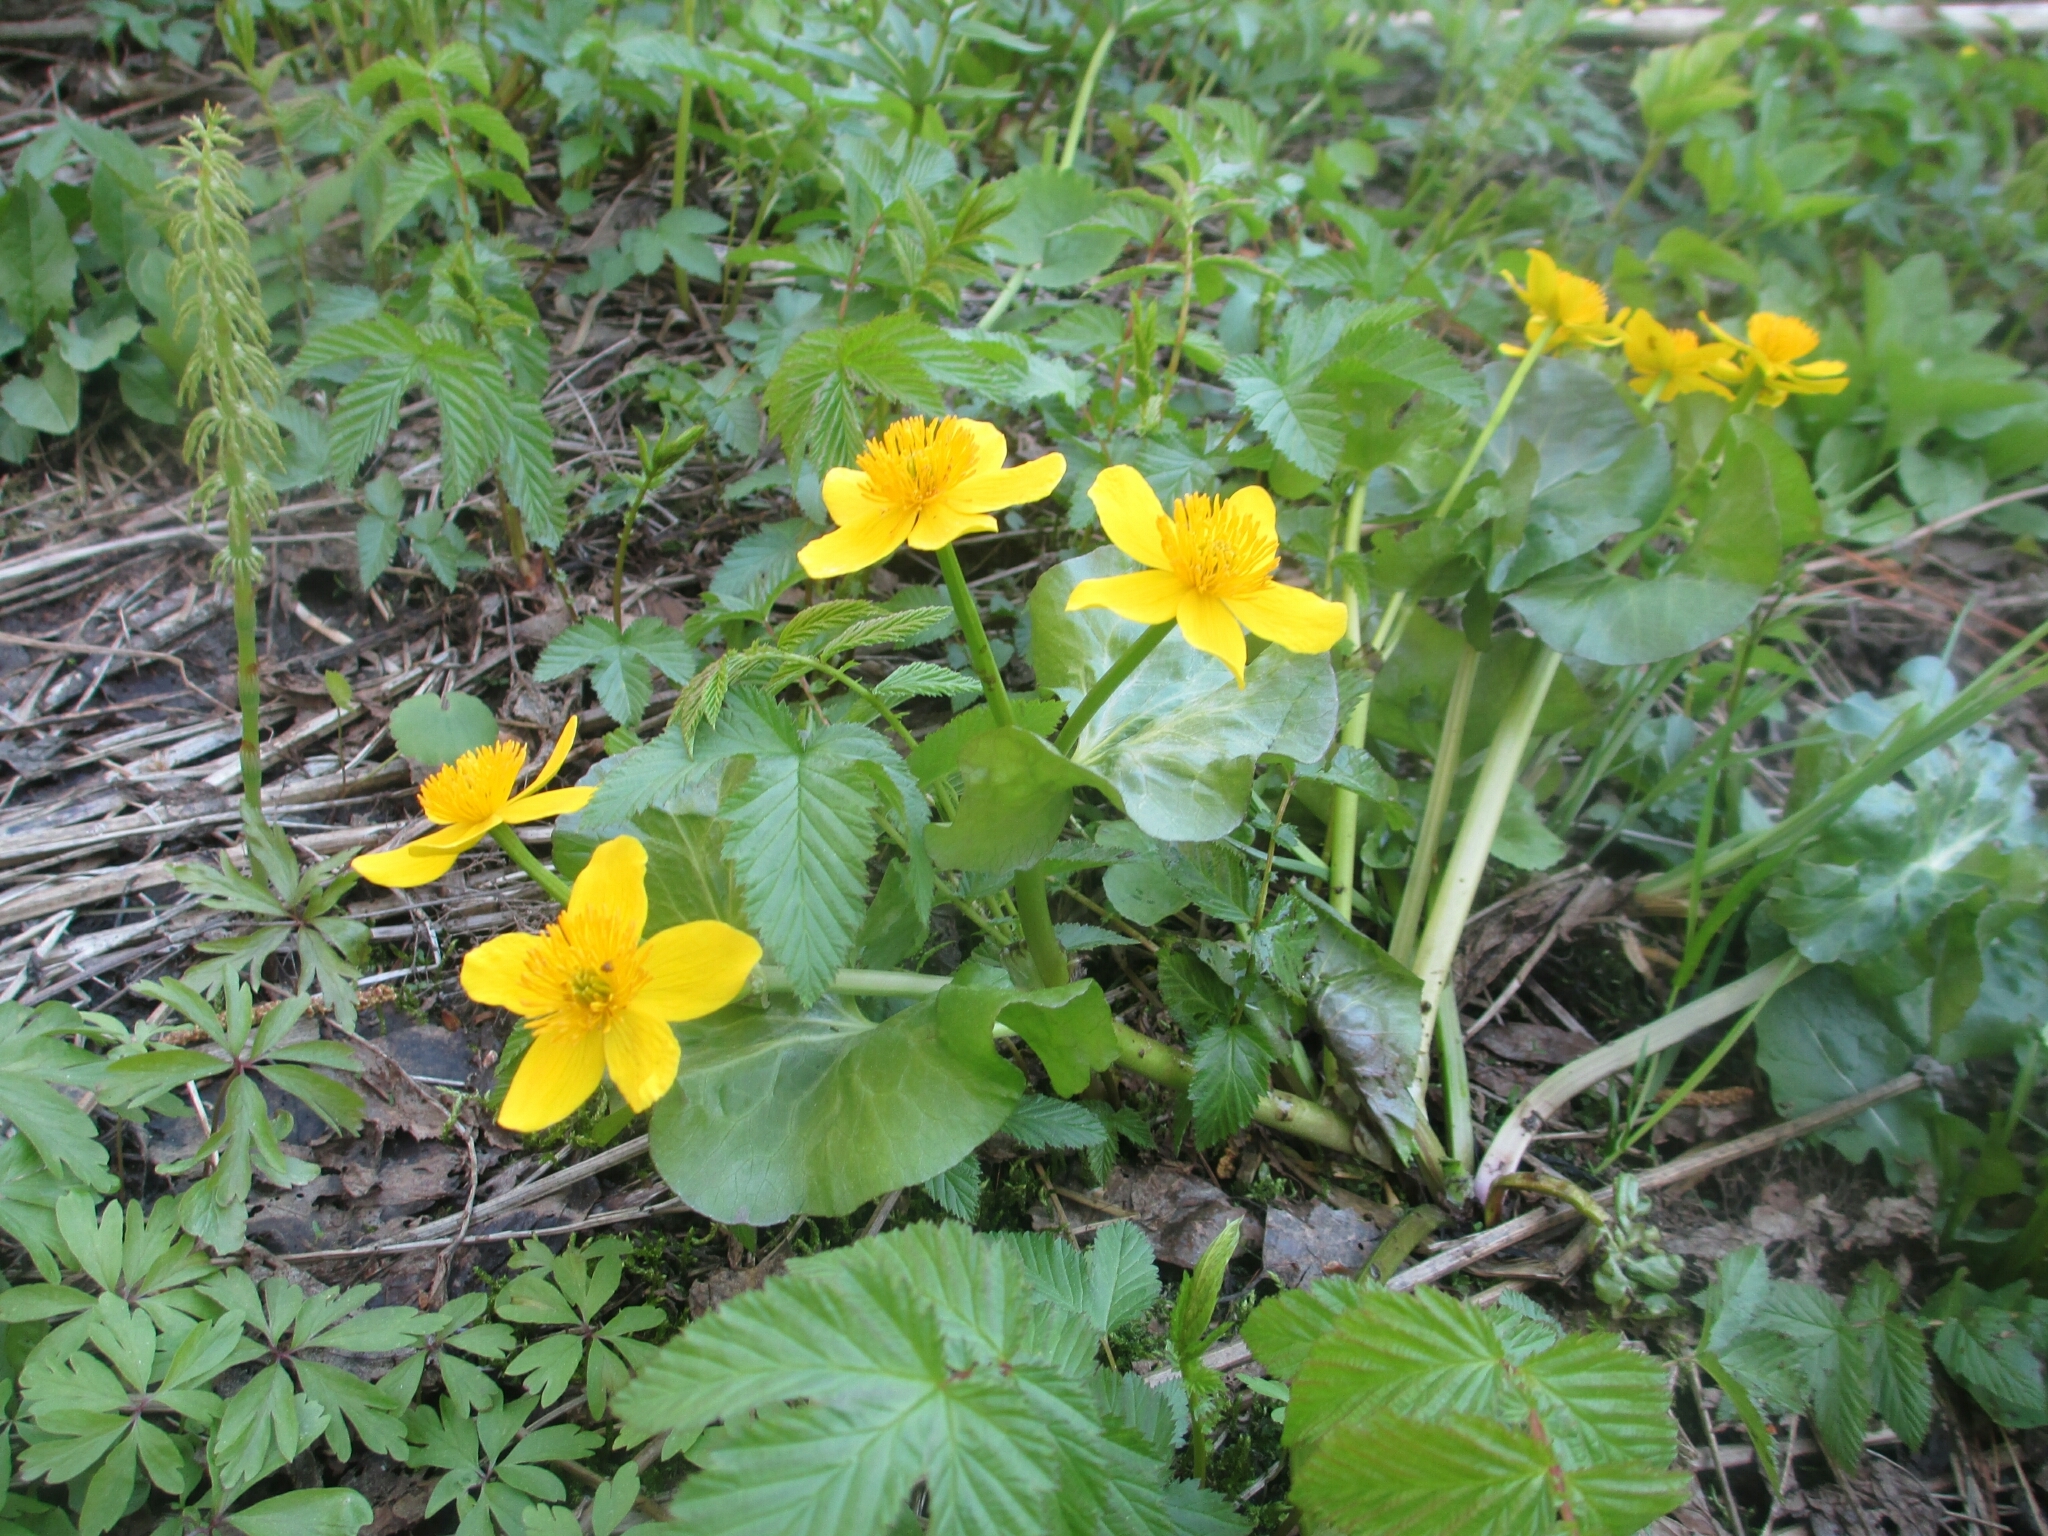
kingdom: Plantae
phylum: Tracheophyta
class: Magnoliopsida
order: Ranunculales
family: Ranunculaceae
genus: Caltha
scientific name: Caltha palustris
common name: Marsh marigold
